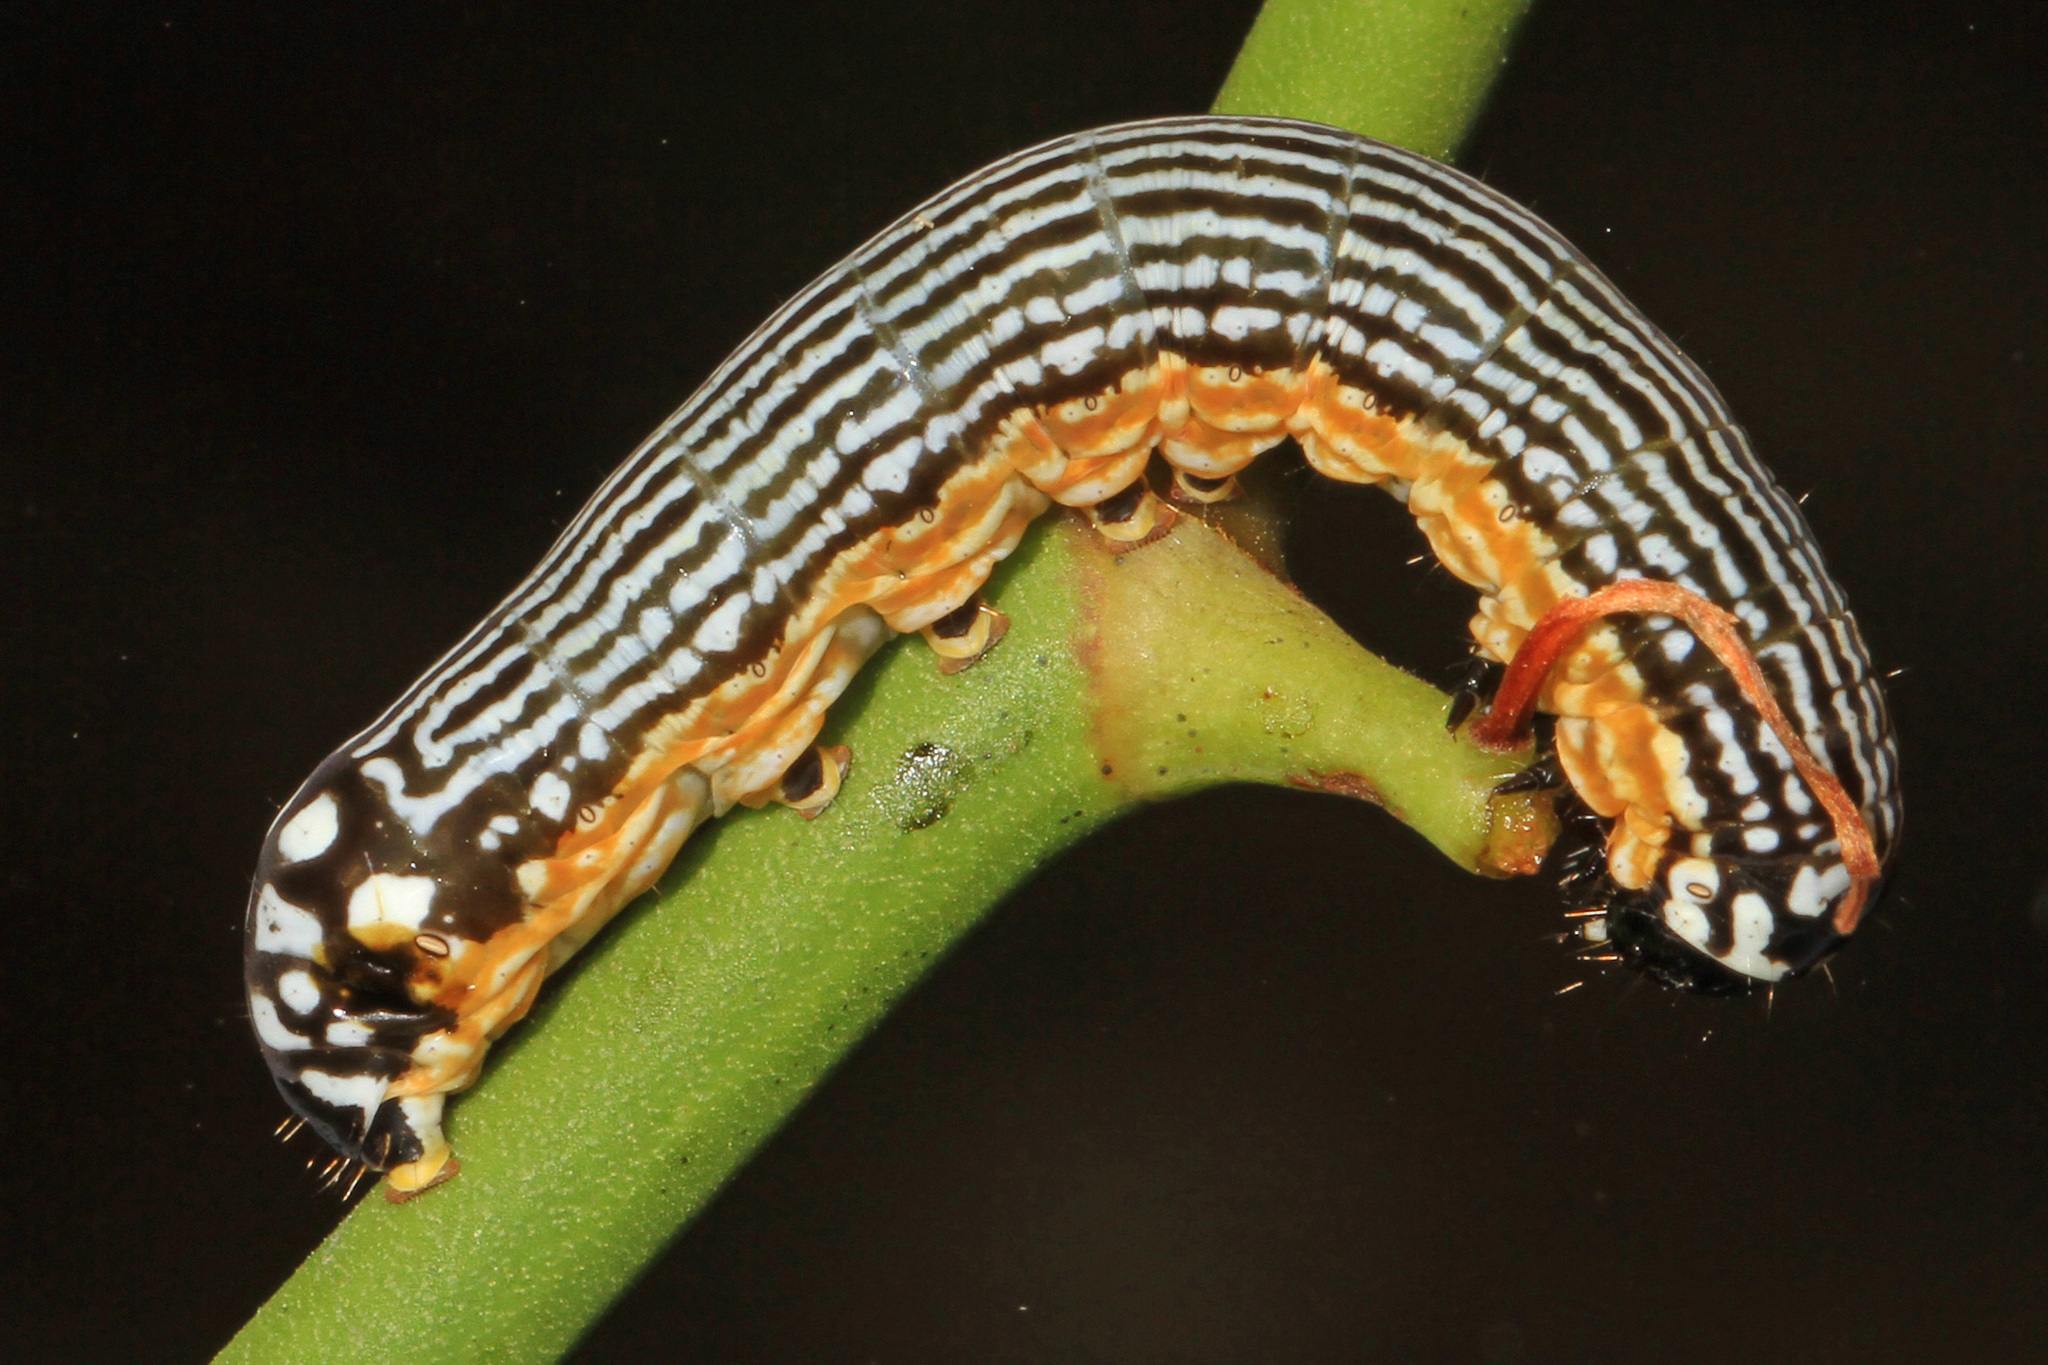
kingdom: Animalia
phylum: Arthropoda
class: Insecta
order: Lepidoptera
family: Noctuidae
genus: Phosphila
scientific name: Phosphila turbulenta
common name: Turbulent phosphila moth
